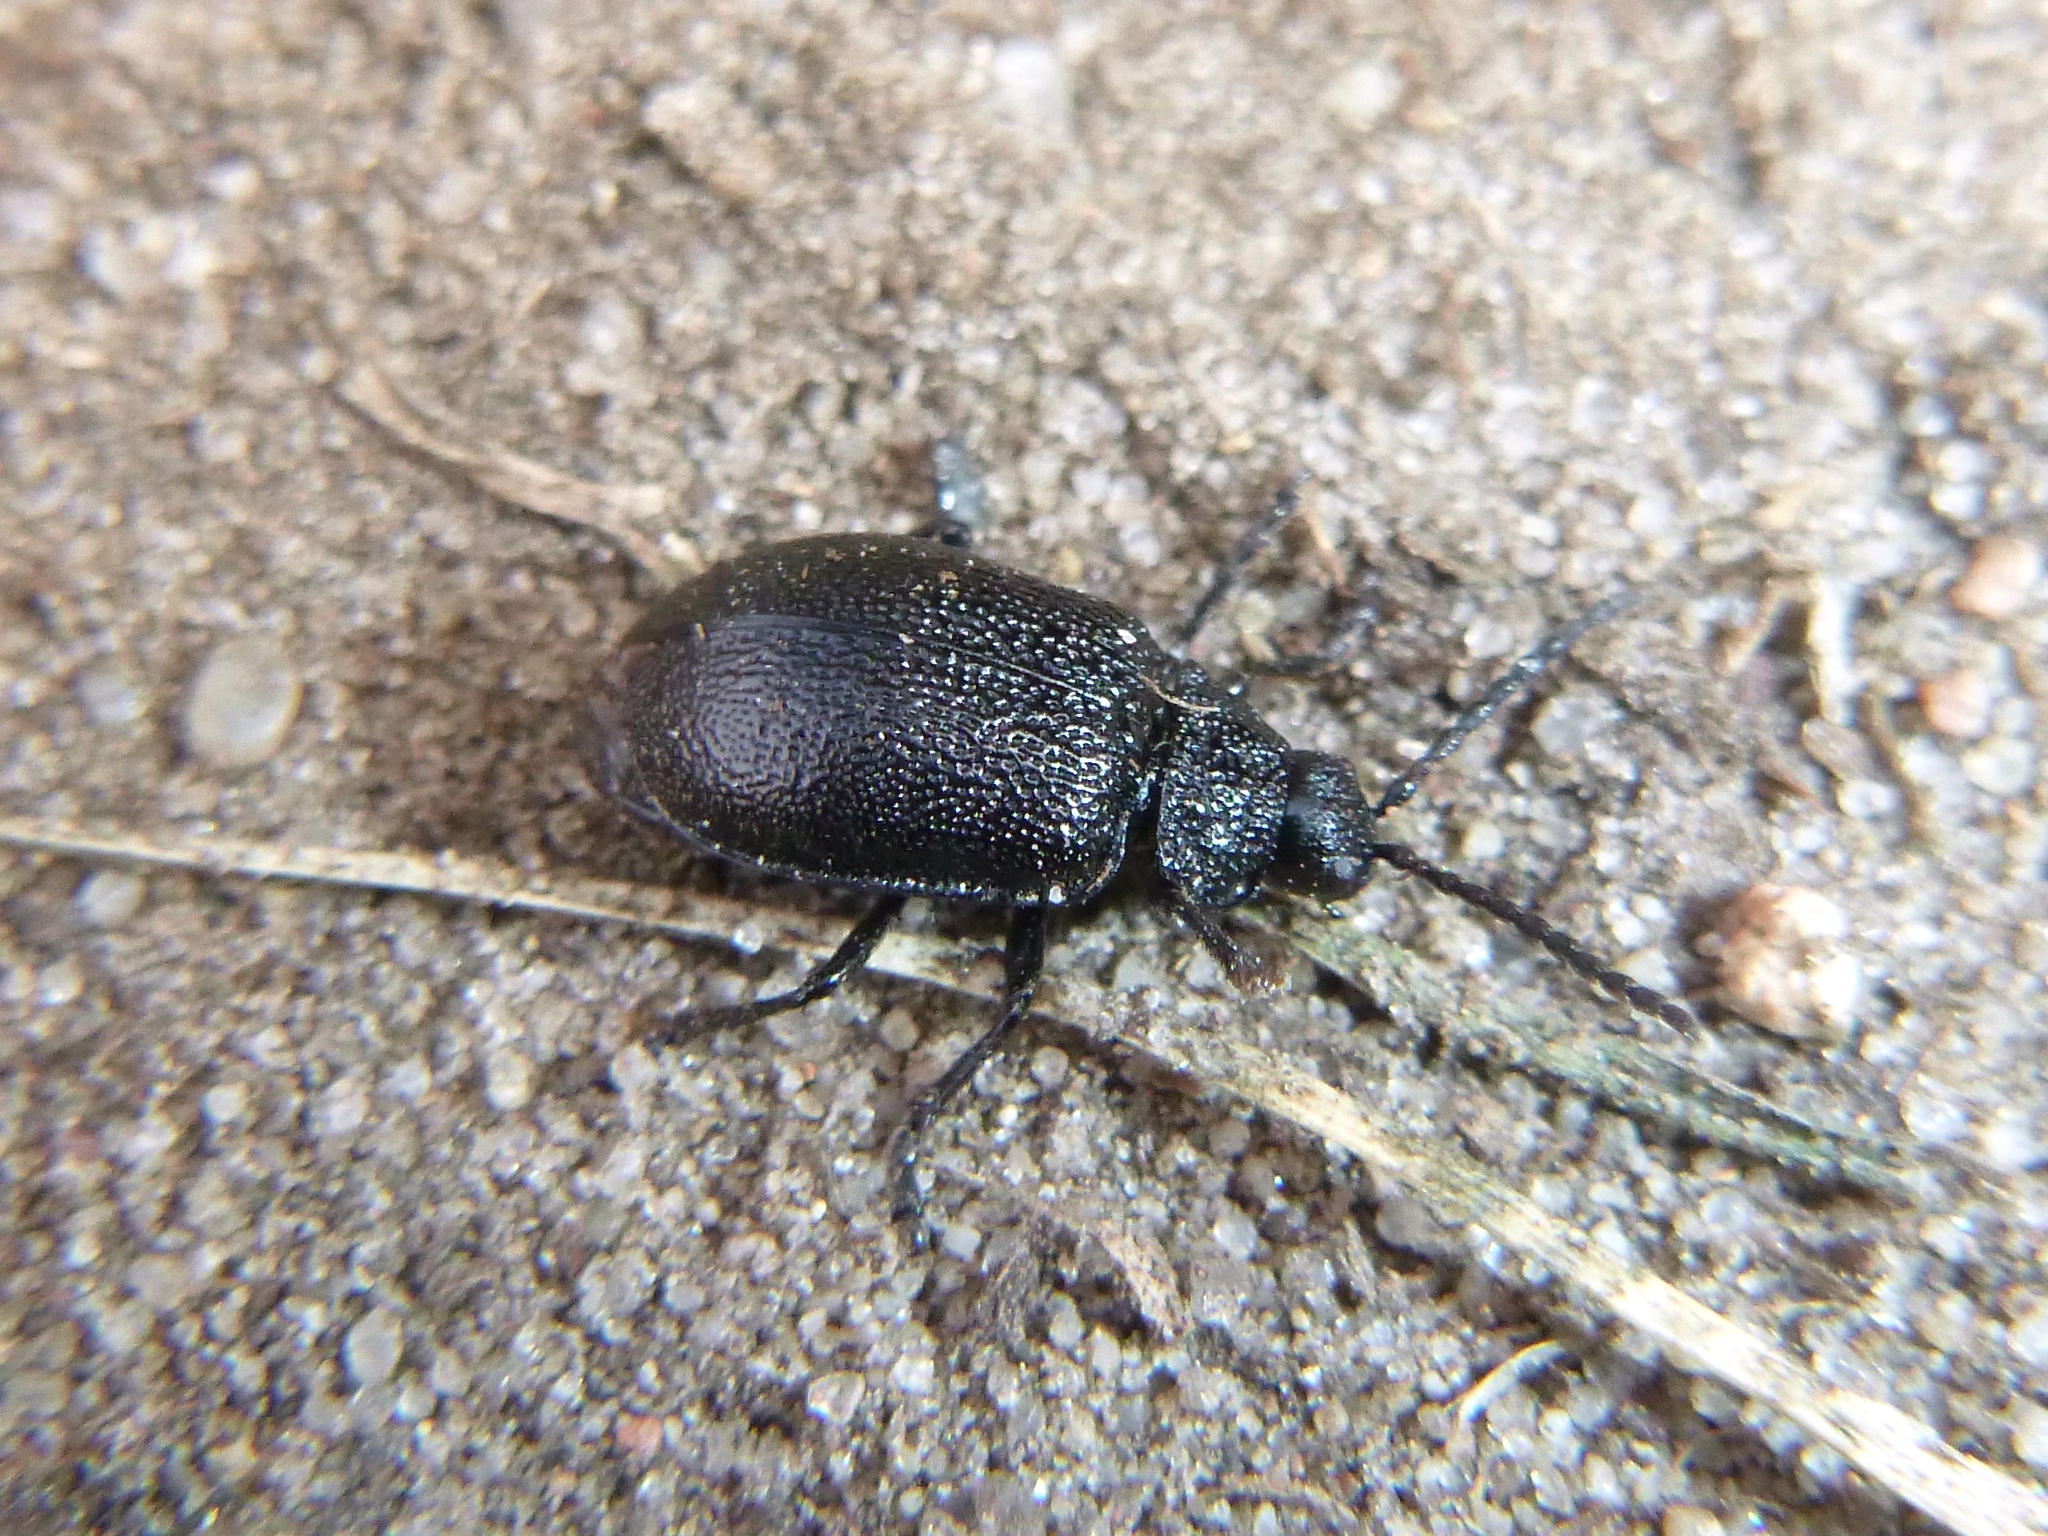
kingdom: Animalia
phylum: Arthropoda
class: Insecta
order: Coleoptera
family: Chrysomelidae
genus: Galeruca
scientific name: Galeruca tanaceti
